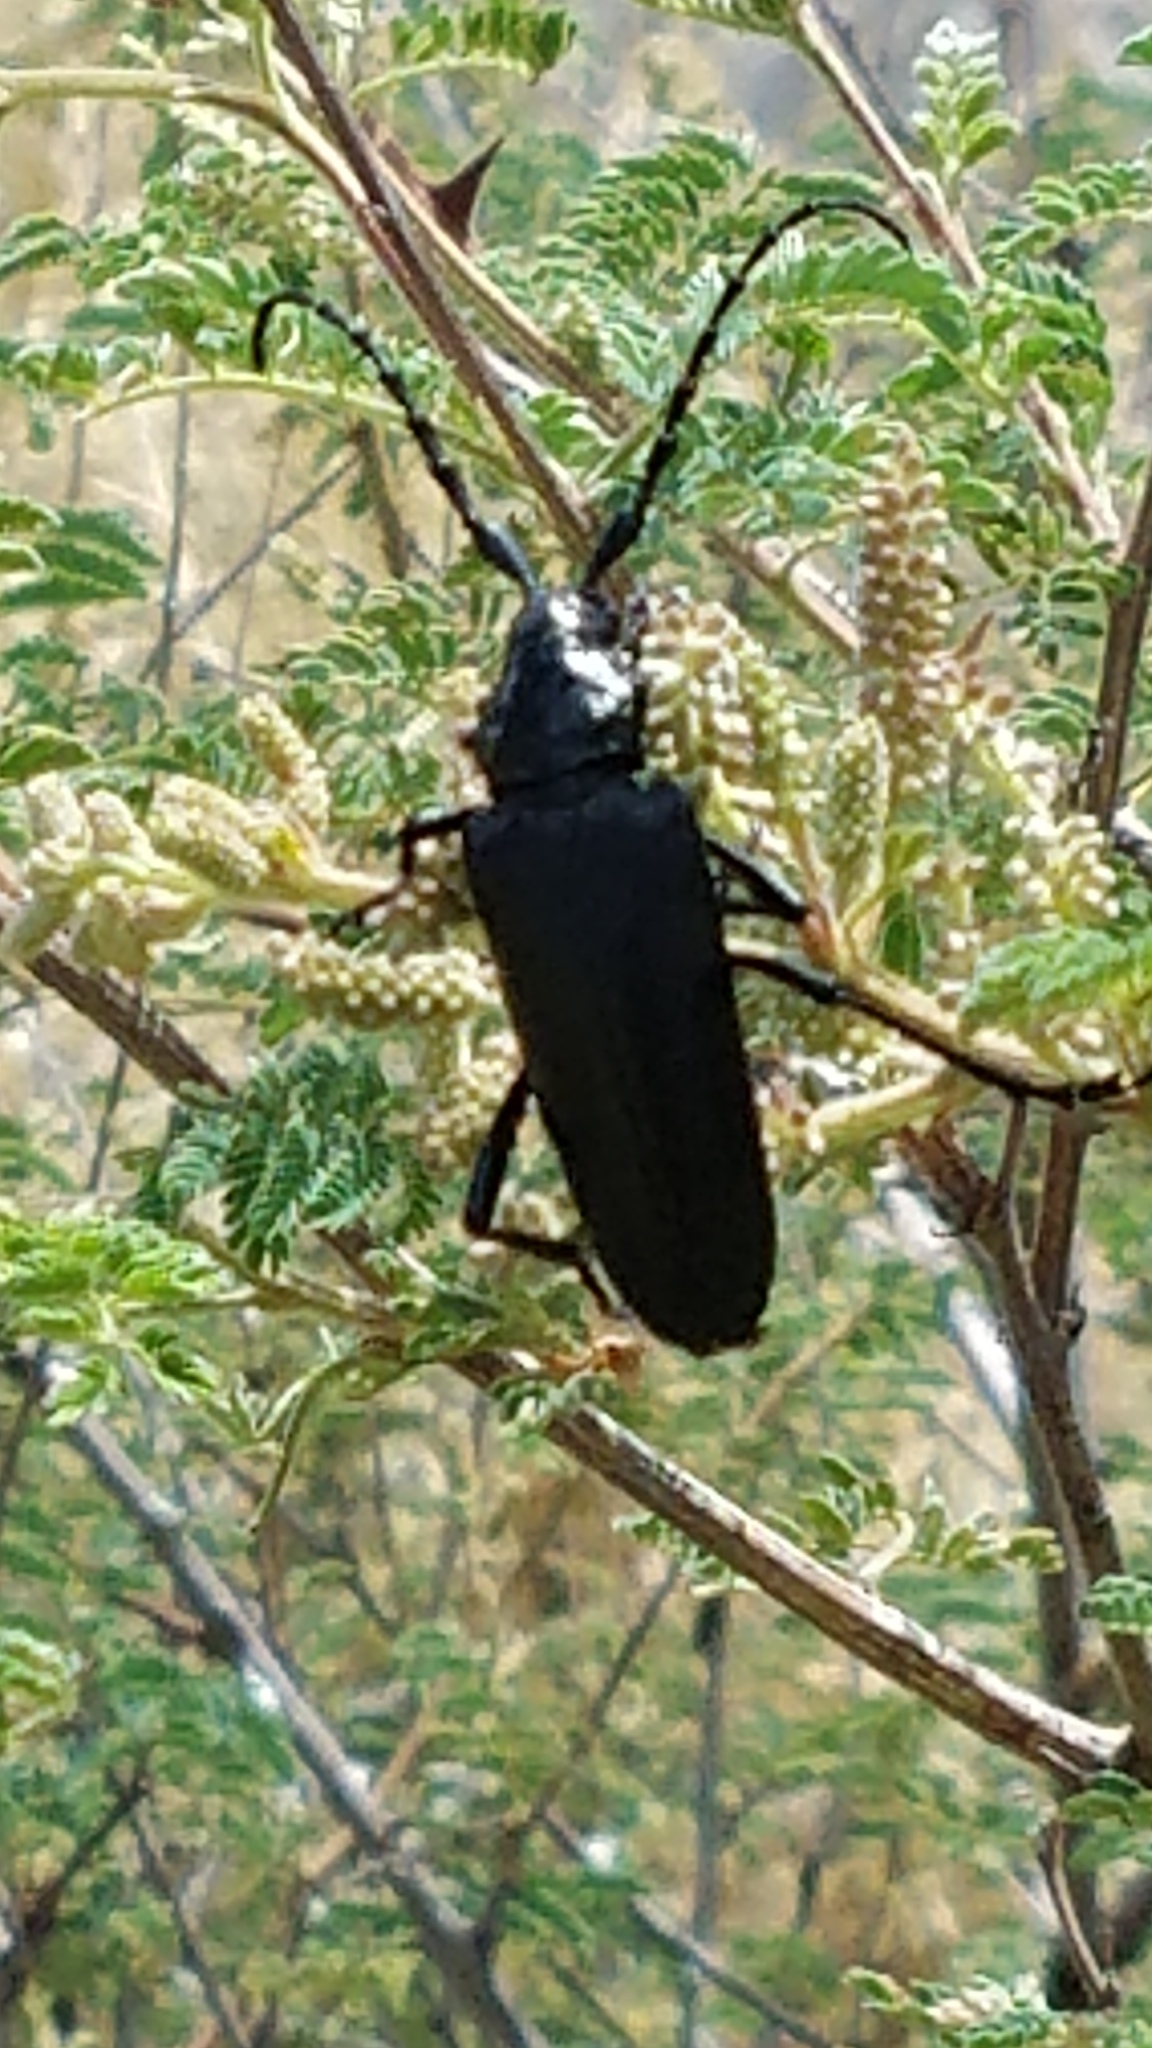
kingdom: Animalia
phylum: Arthropoda
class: Insecta
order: Coleoptera
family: Cerambycidae
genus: Stenaspis
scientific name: Stenaspis solitaria
